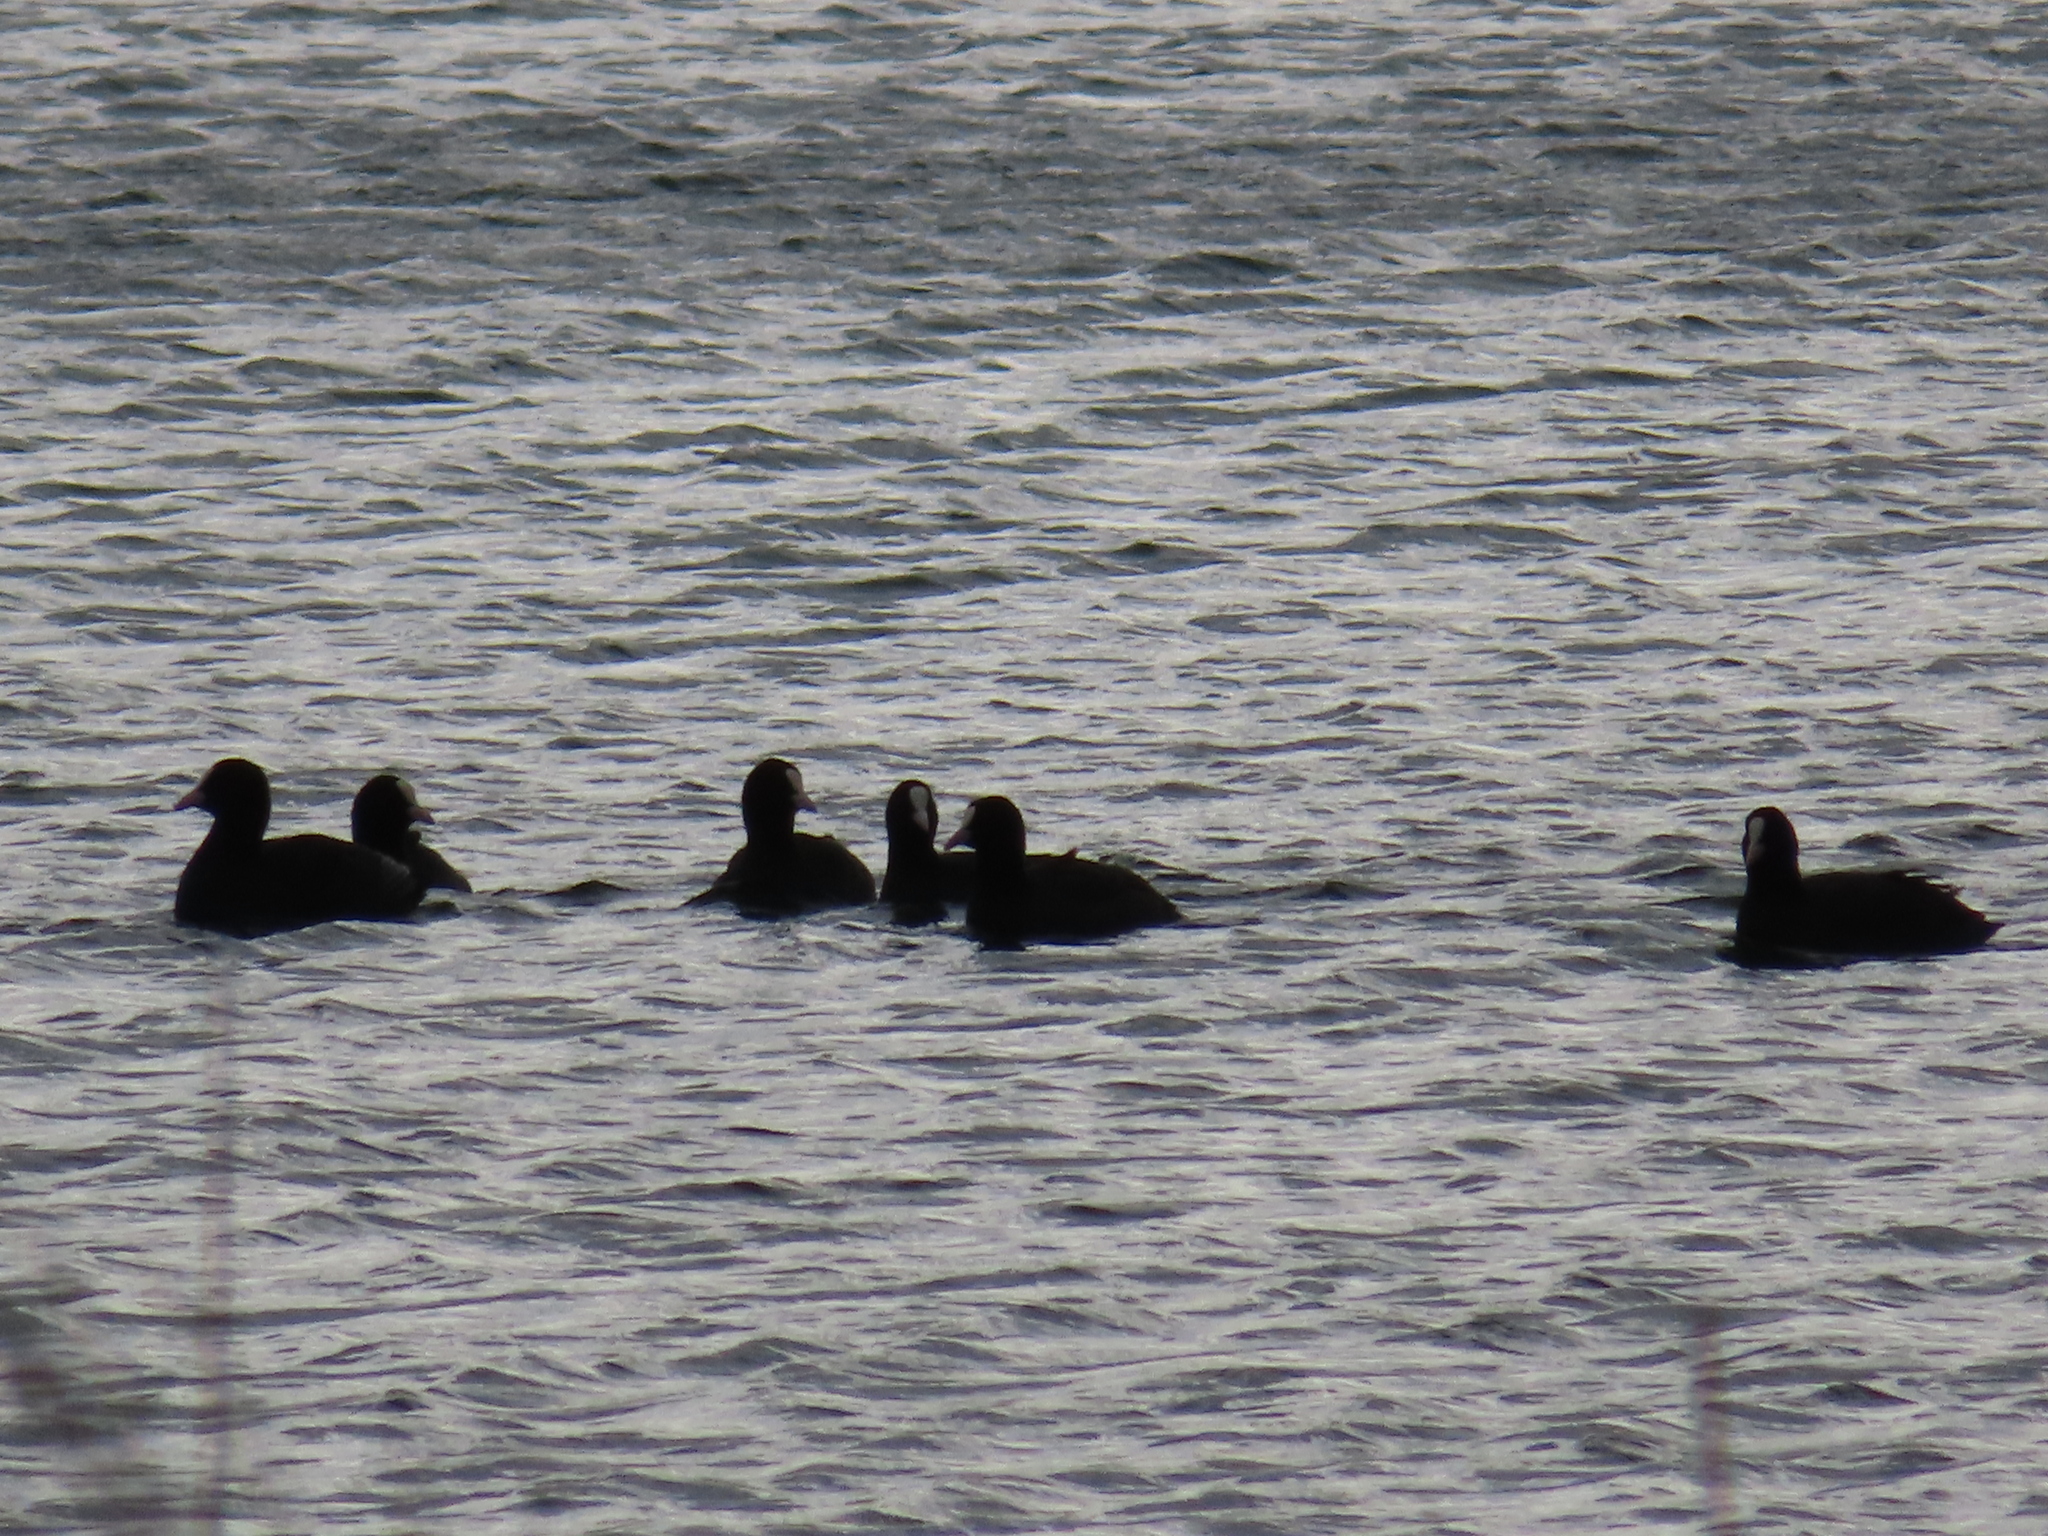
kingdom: Animalia
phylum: Chordata
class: Aves
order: Gruiformes
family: Rallidae
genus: Fulica
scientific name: Fulica atra
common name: Eurasian coot
